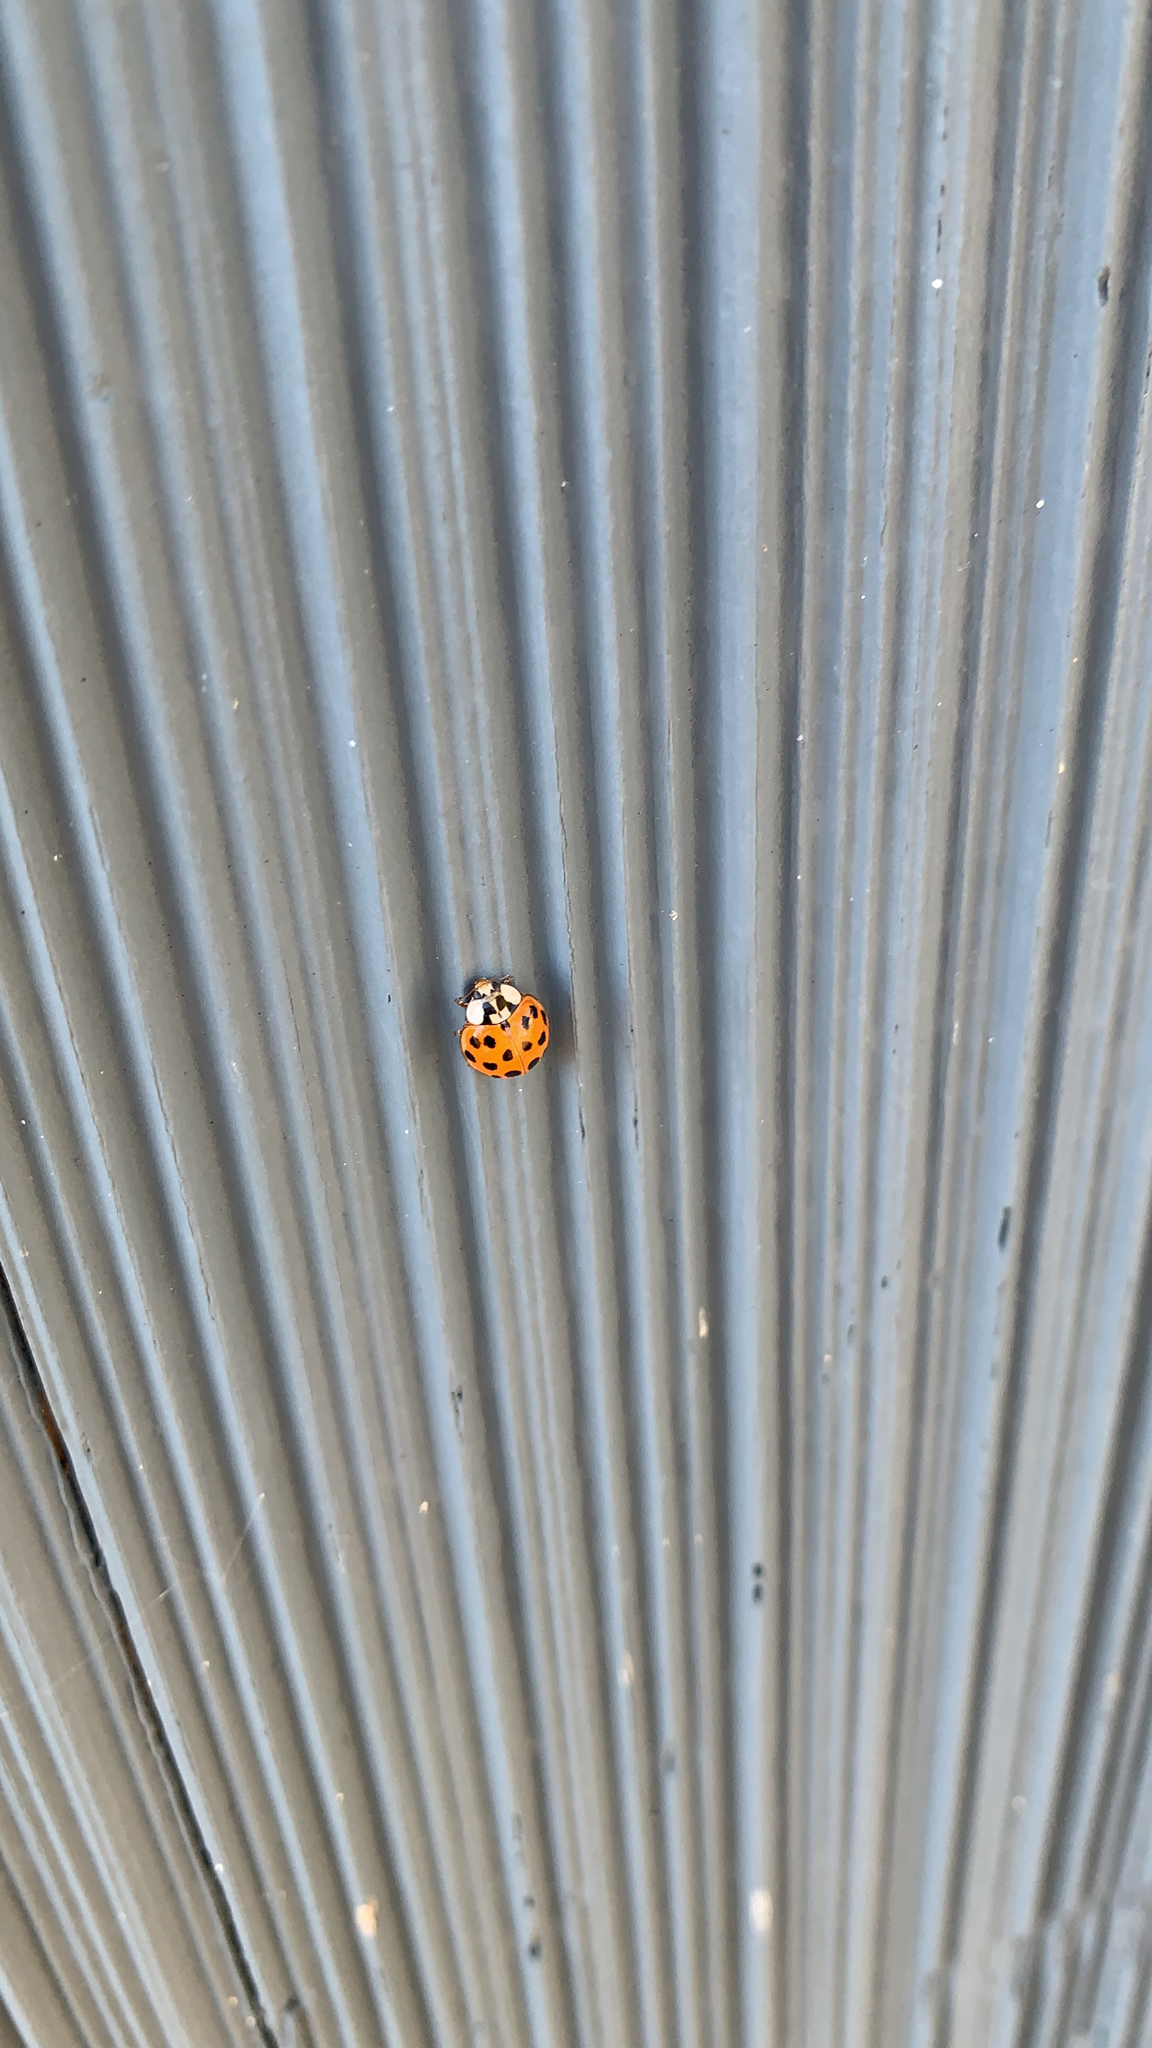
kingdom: Animalia
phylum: Arthropoda
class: Insecta
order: Coleoptera
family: Coccinellidae
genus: Harmonia
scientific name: Harmonia axyridis
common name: Harlequin ladybird
